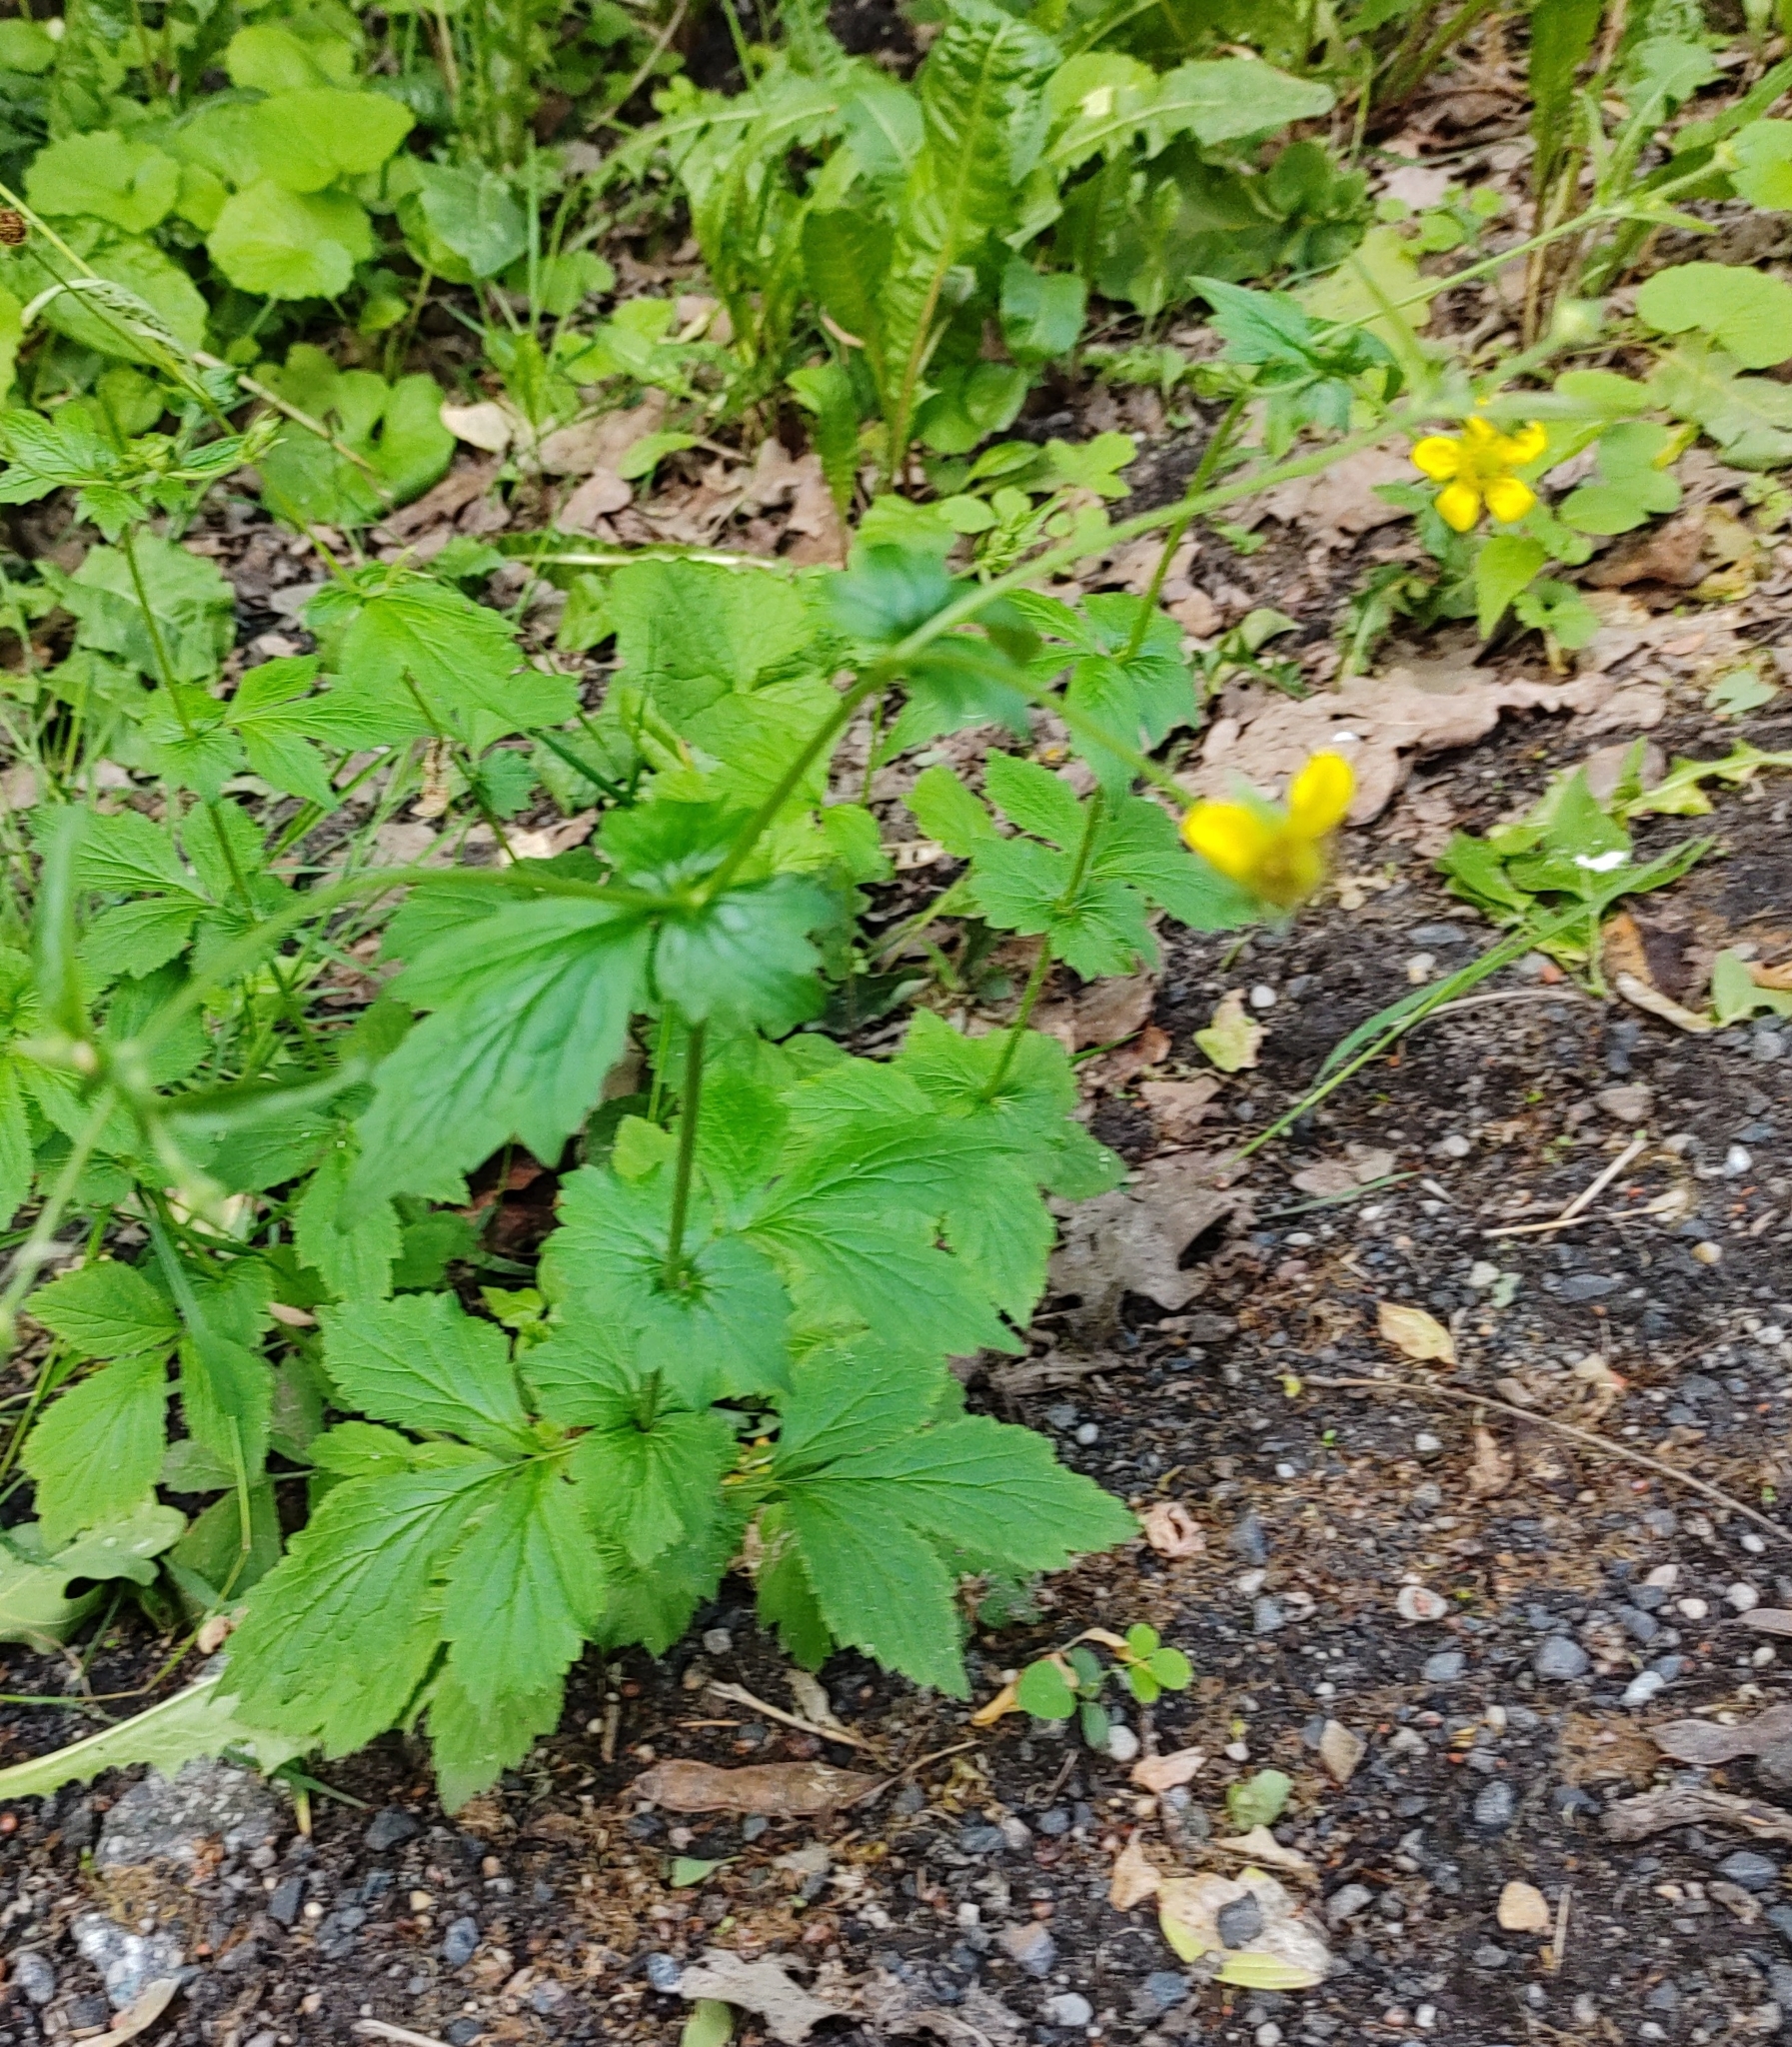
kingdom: Plantae
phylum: Tracheophyta
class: Magnoliopsida
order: Rosales
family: Rosaceae
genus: Geum
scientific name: Geum urbanum
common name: Wood avens
